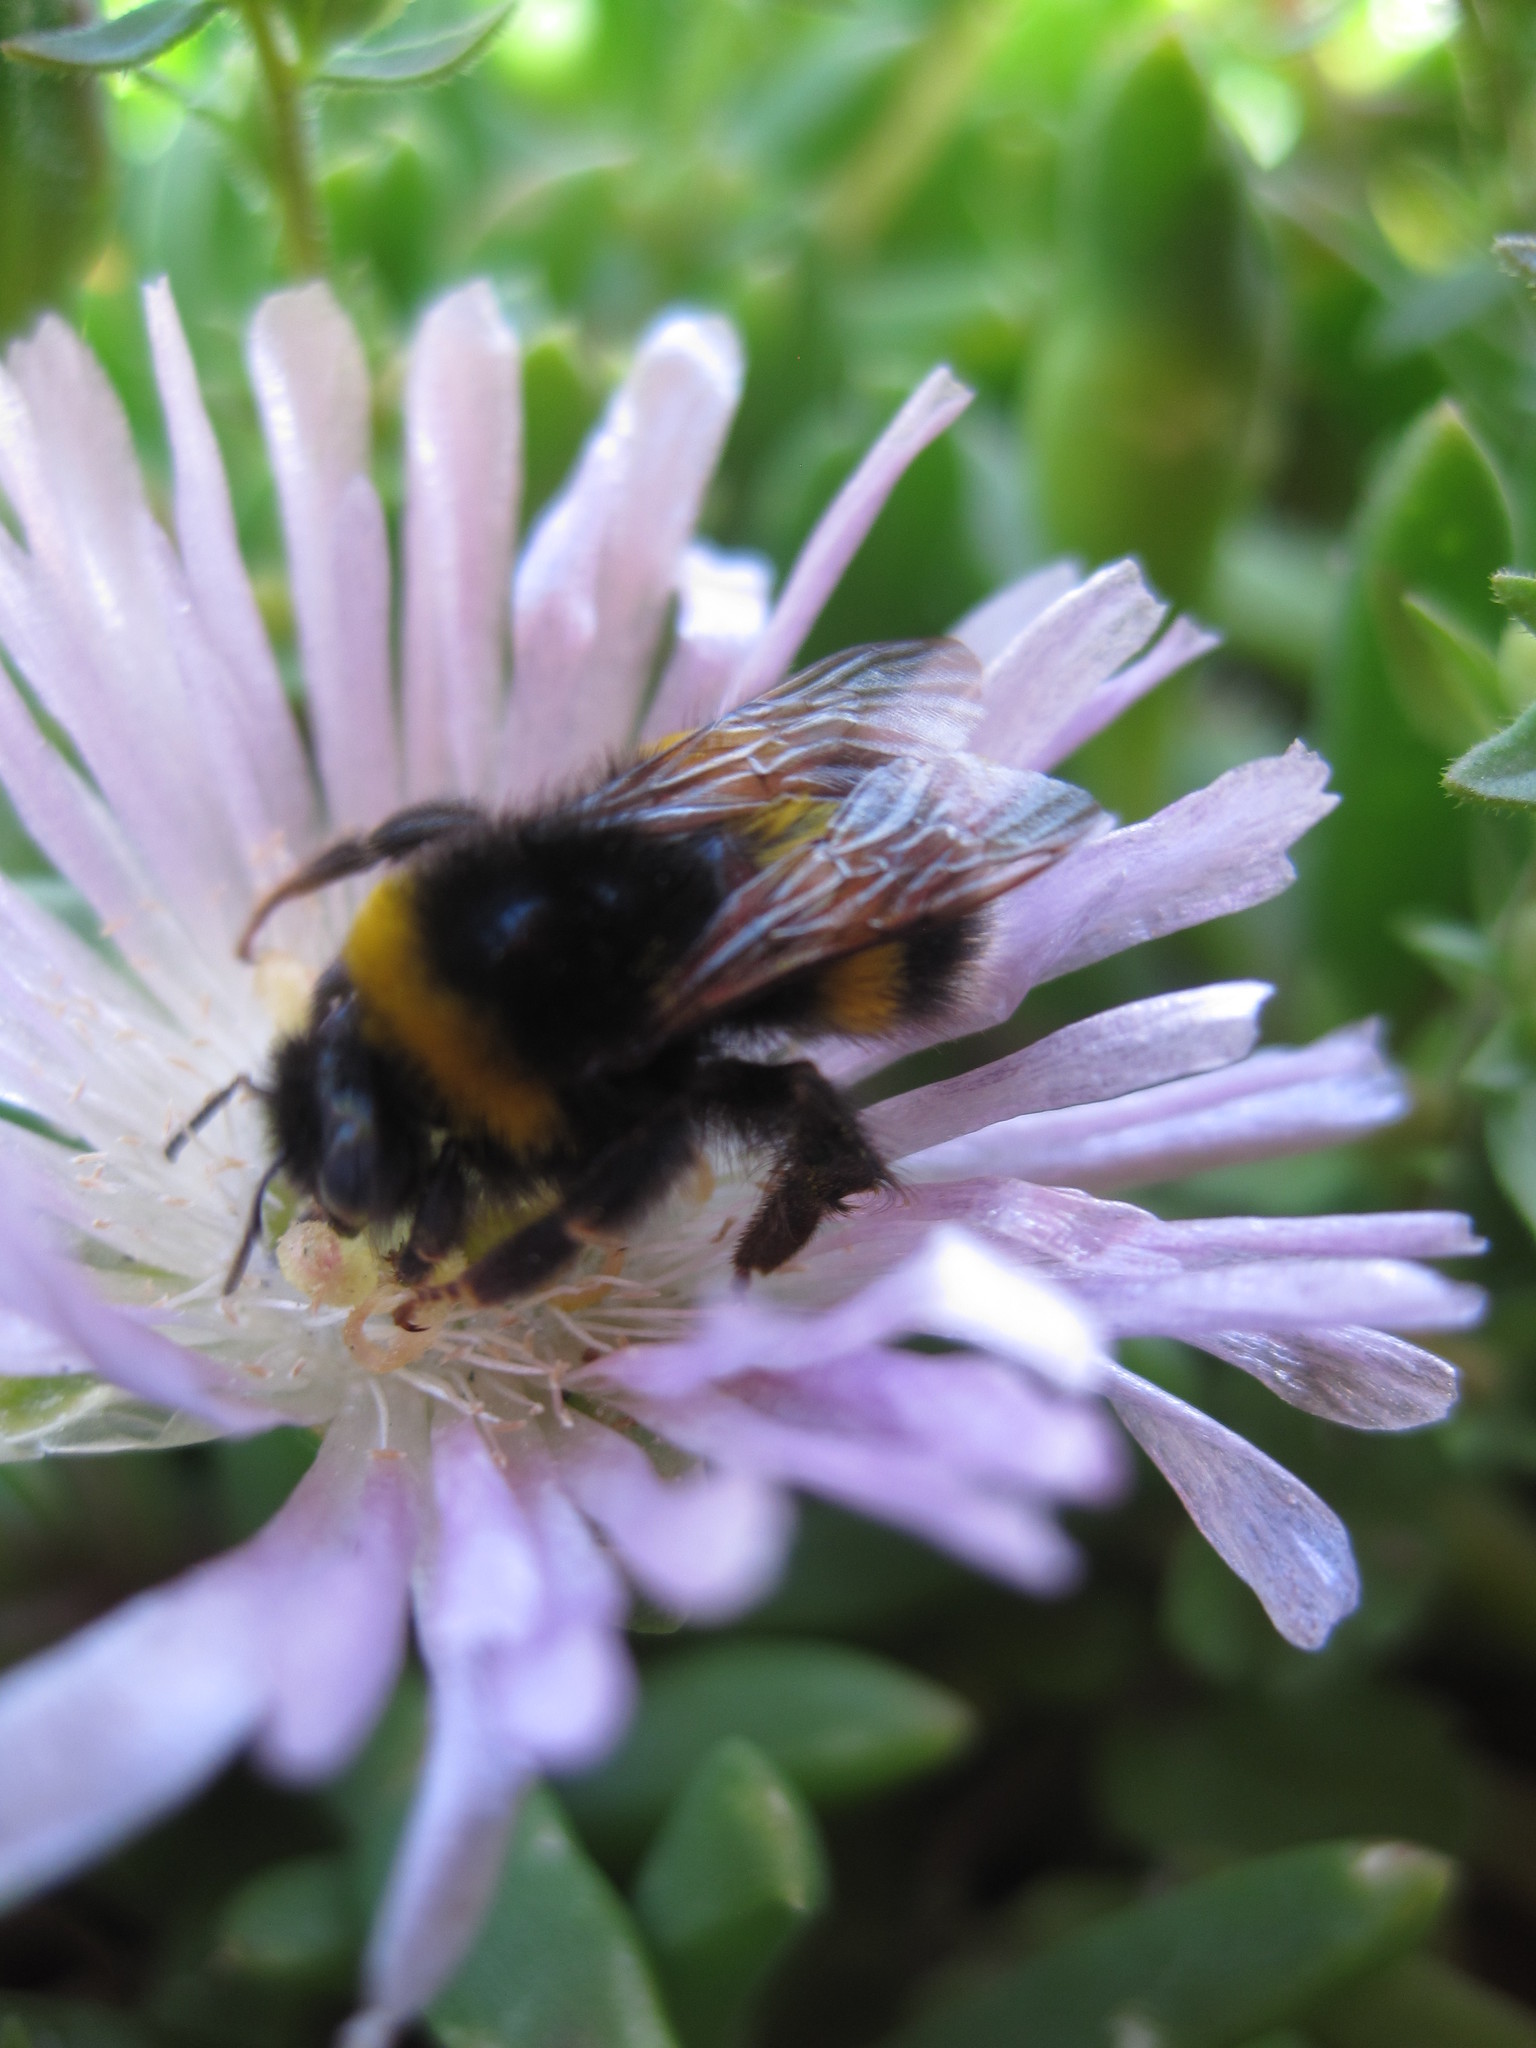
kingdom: Animalia
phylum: Arthropoda
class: Insecta
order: Hymenoptera
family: Apidae
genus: Bombus
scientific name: Bombus terrestris
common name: Buff-tailed bumblebee
